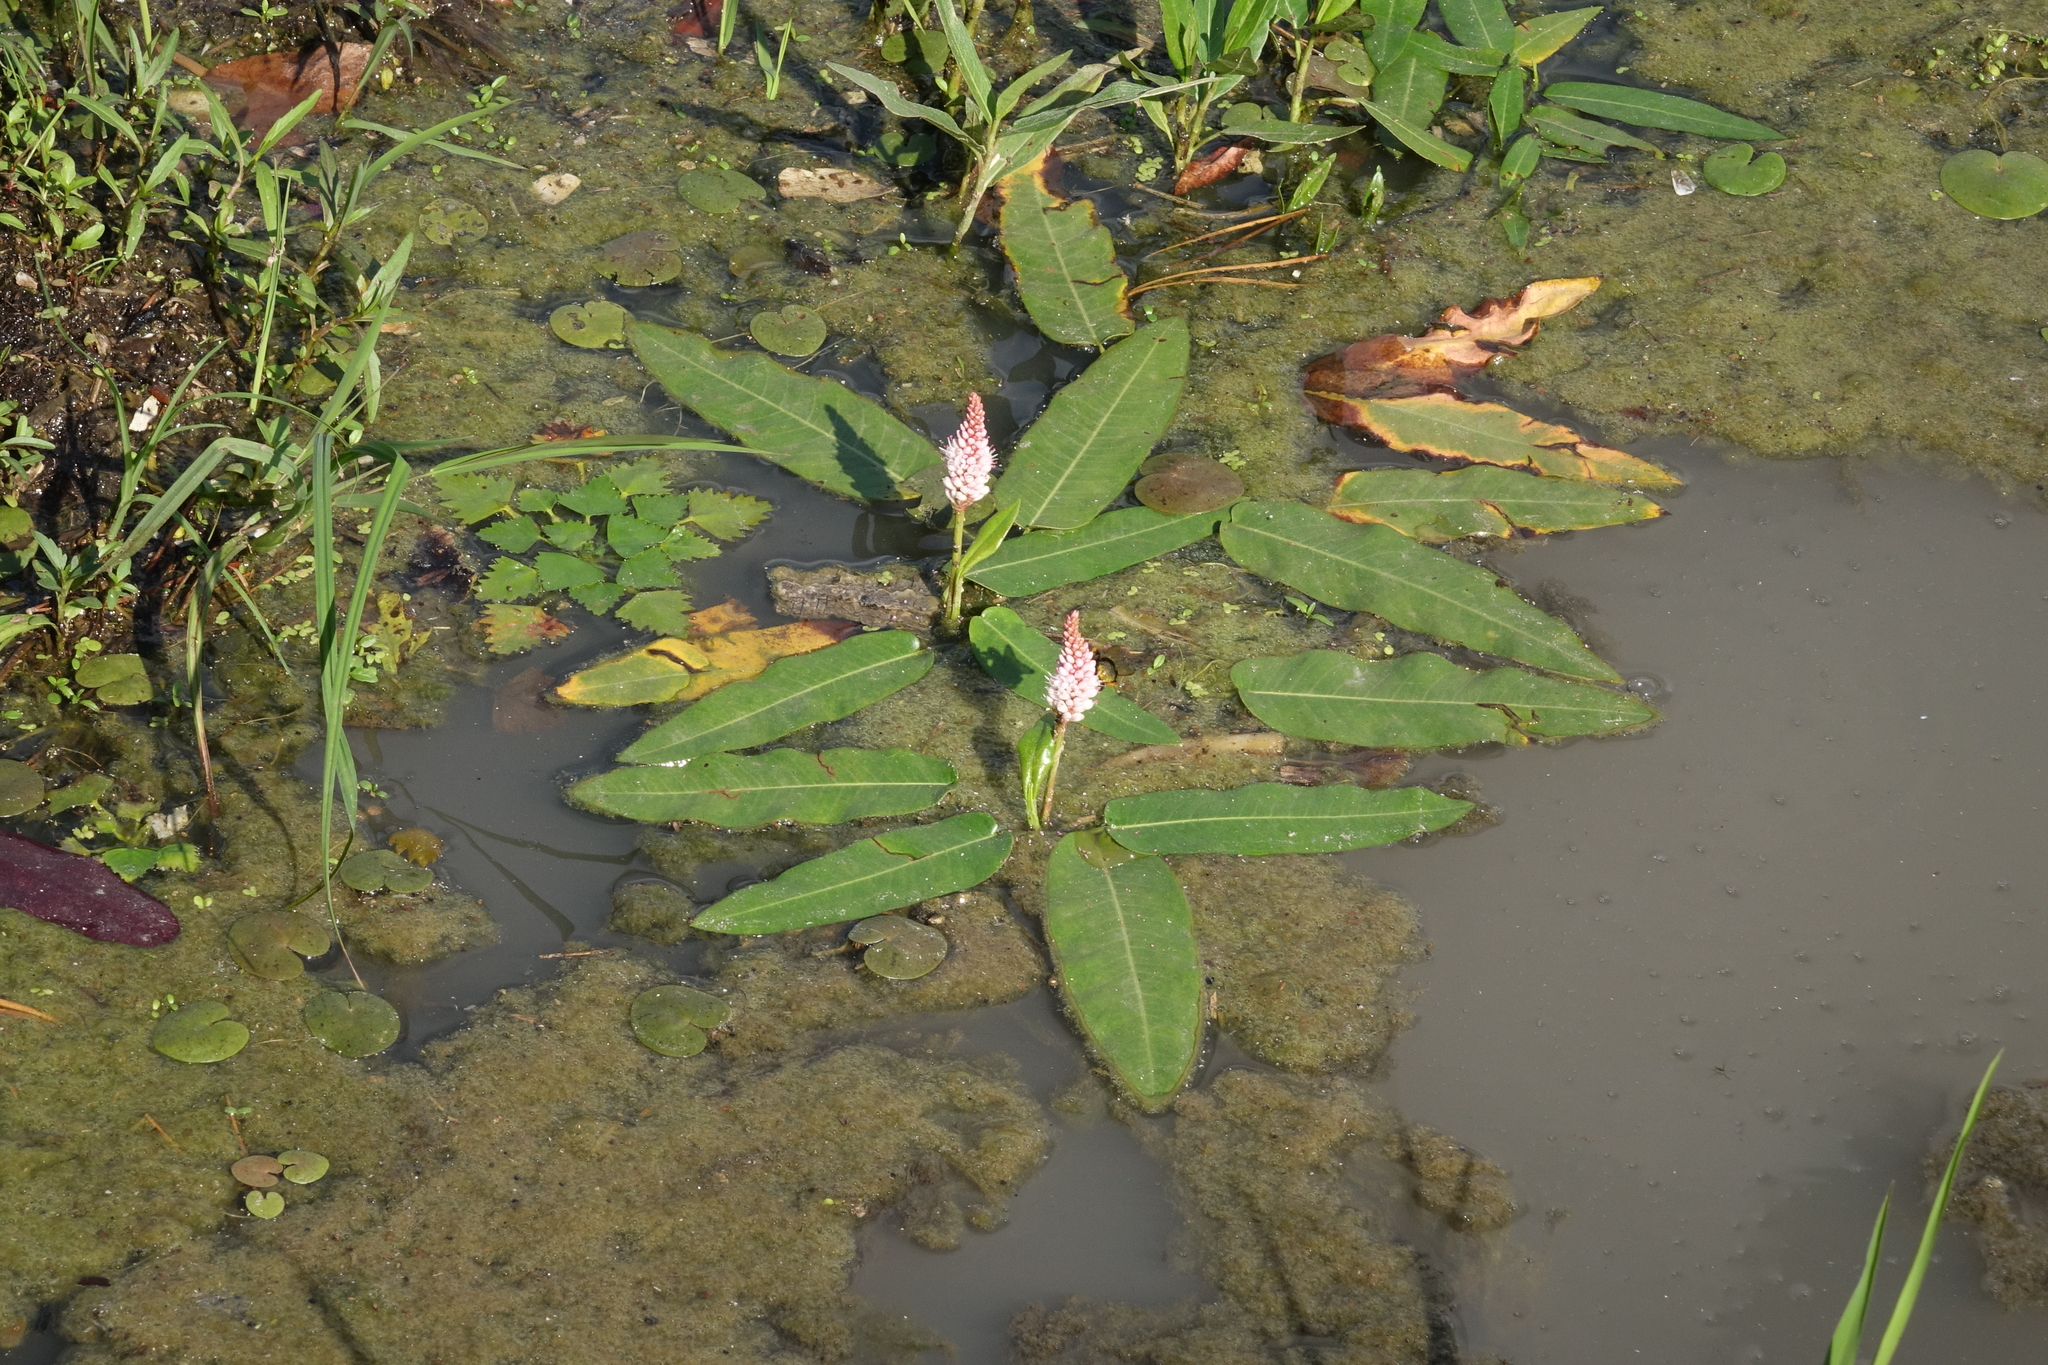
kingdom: Plantae
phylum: Tracheophyta
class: Magnoliopsida
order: Caryophyllales
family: Polygonaceae
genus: Persicaria
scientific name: Persicaria amphibia
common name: Amphibious bistort
